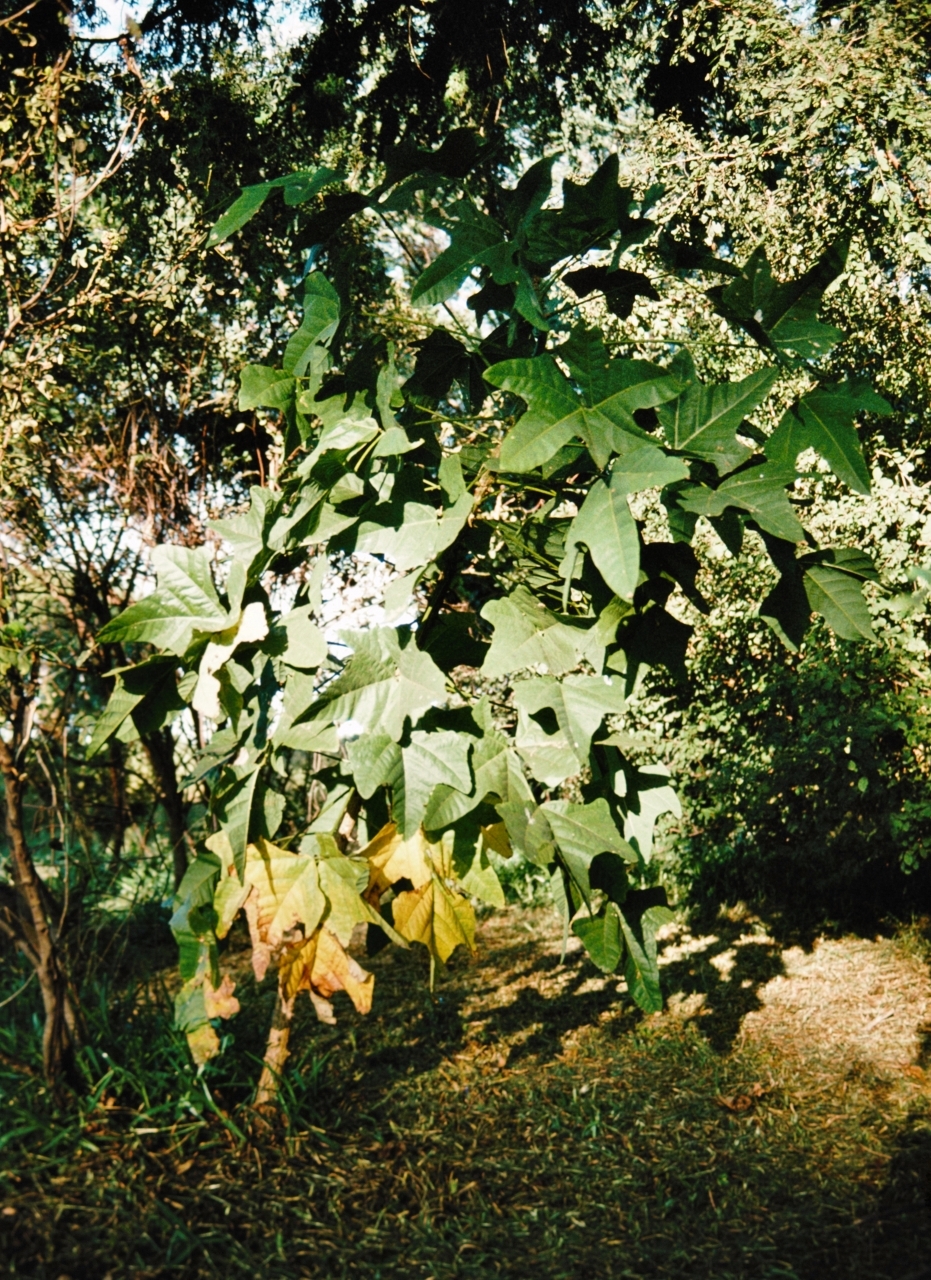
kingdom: Plantae
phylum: Tracheophyta
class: Magnoliopsida
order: Fabales
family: Fabaceae
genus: Erythrina
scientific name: Erythrina livingstoniana
